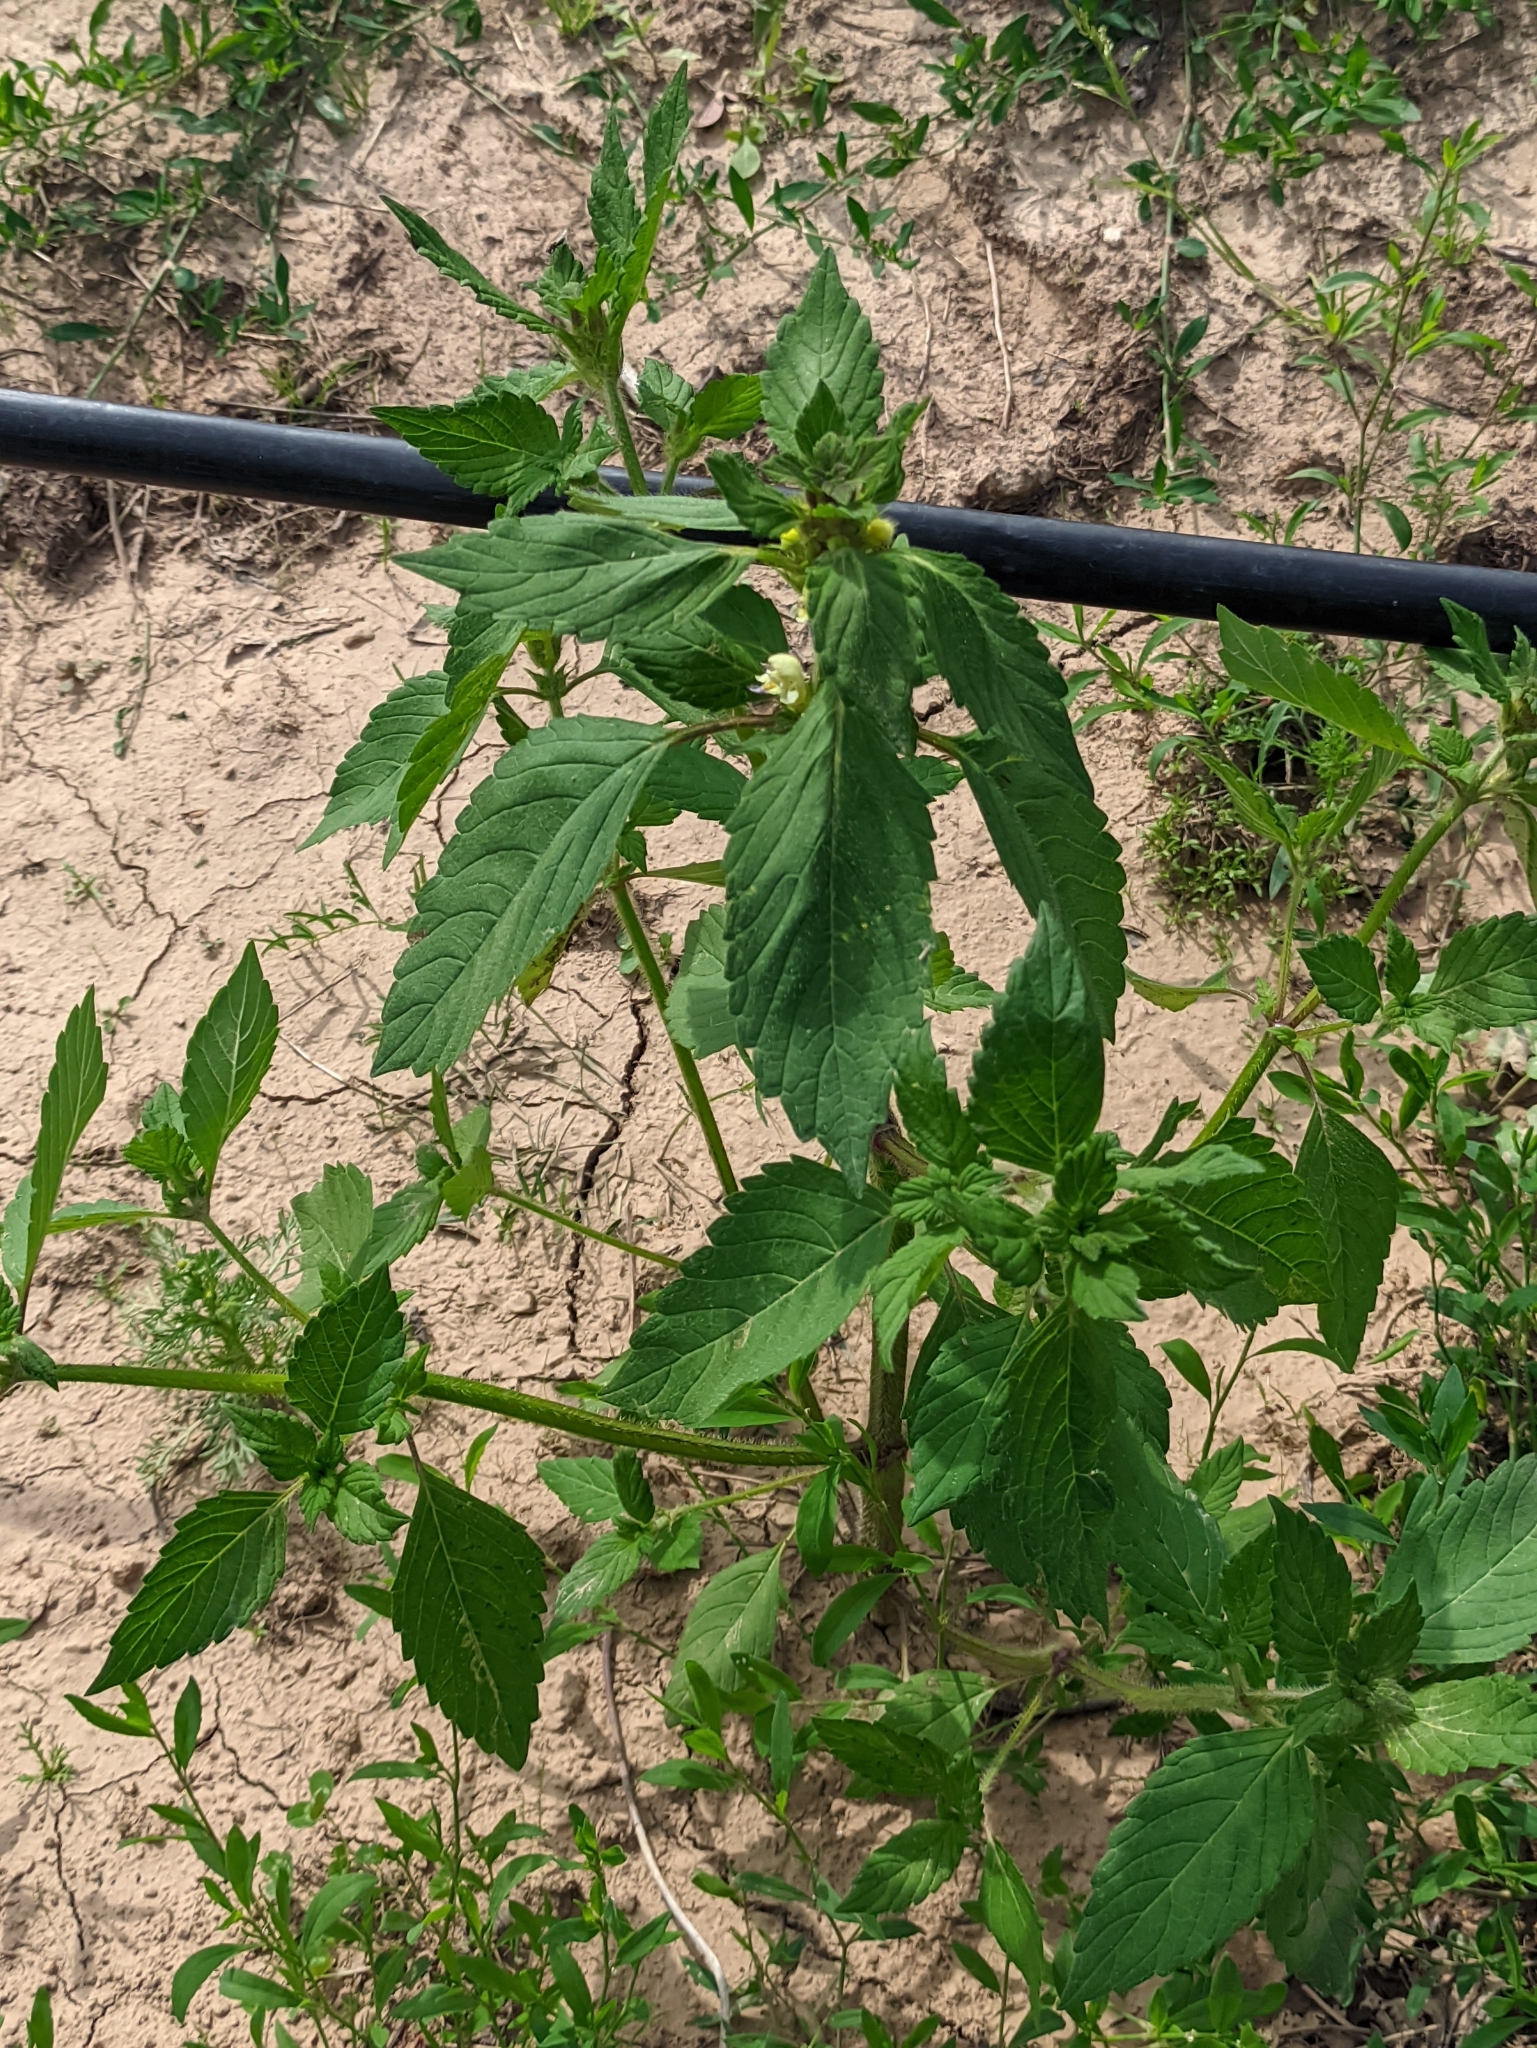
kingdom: Plantae
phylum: Tracheophyta
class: Magnoliopsida
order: Lamiales
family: Lamiaceae
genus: Galeopsis
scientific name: Galeopsis speciosa
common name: Large-flowered hemp-nettle
